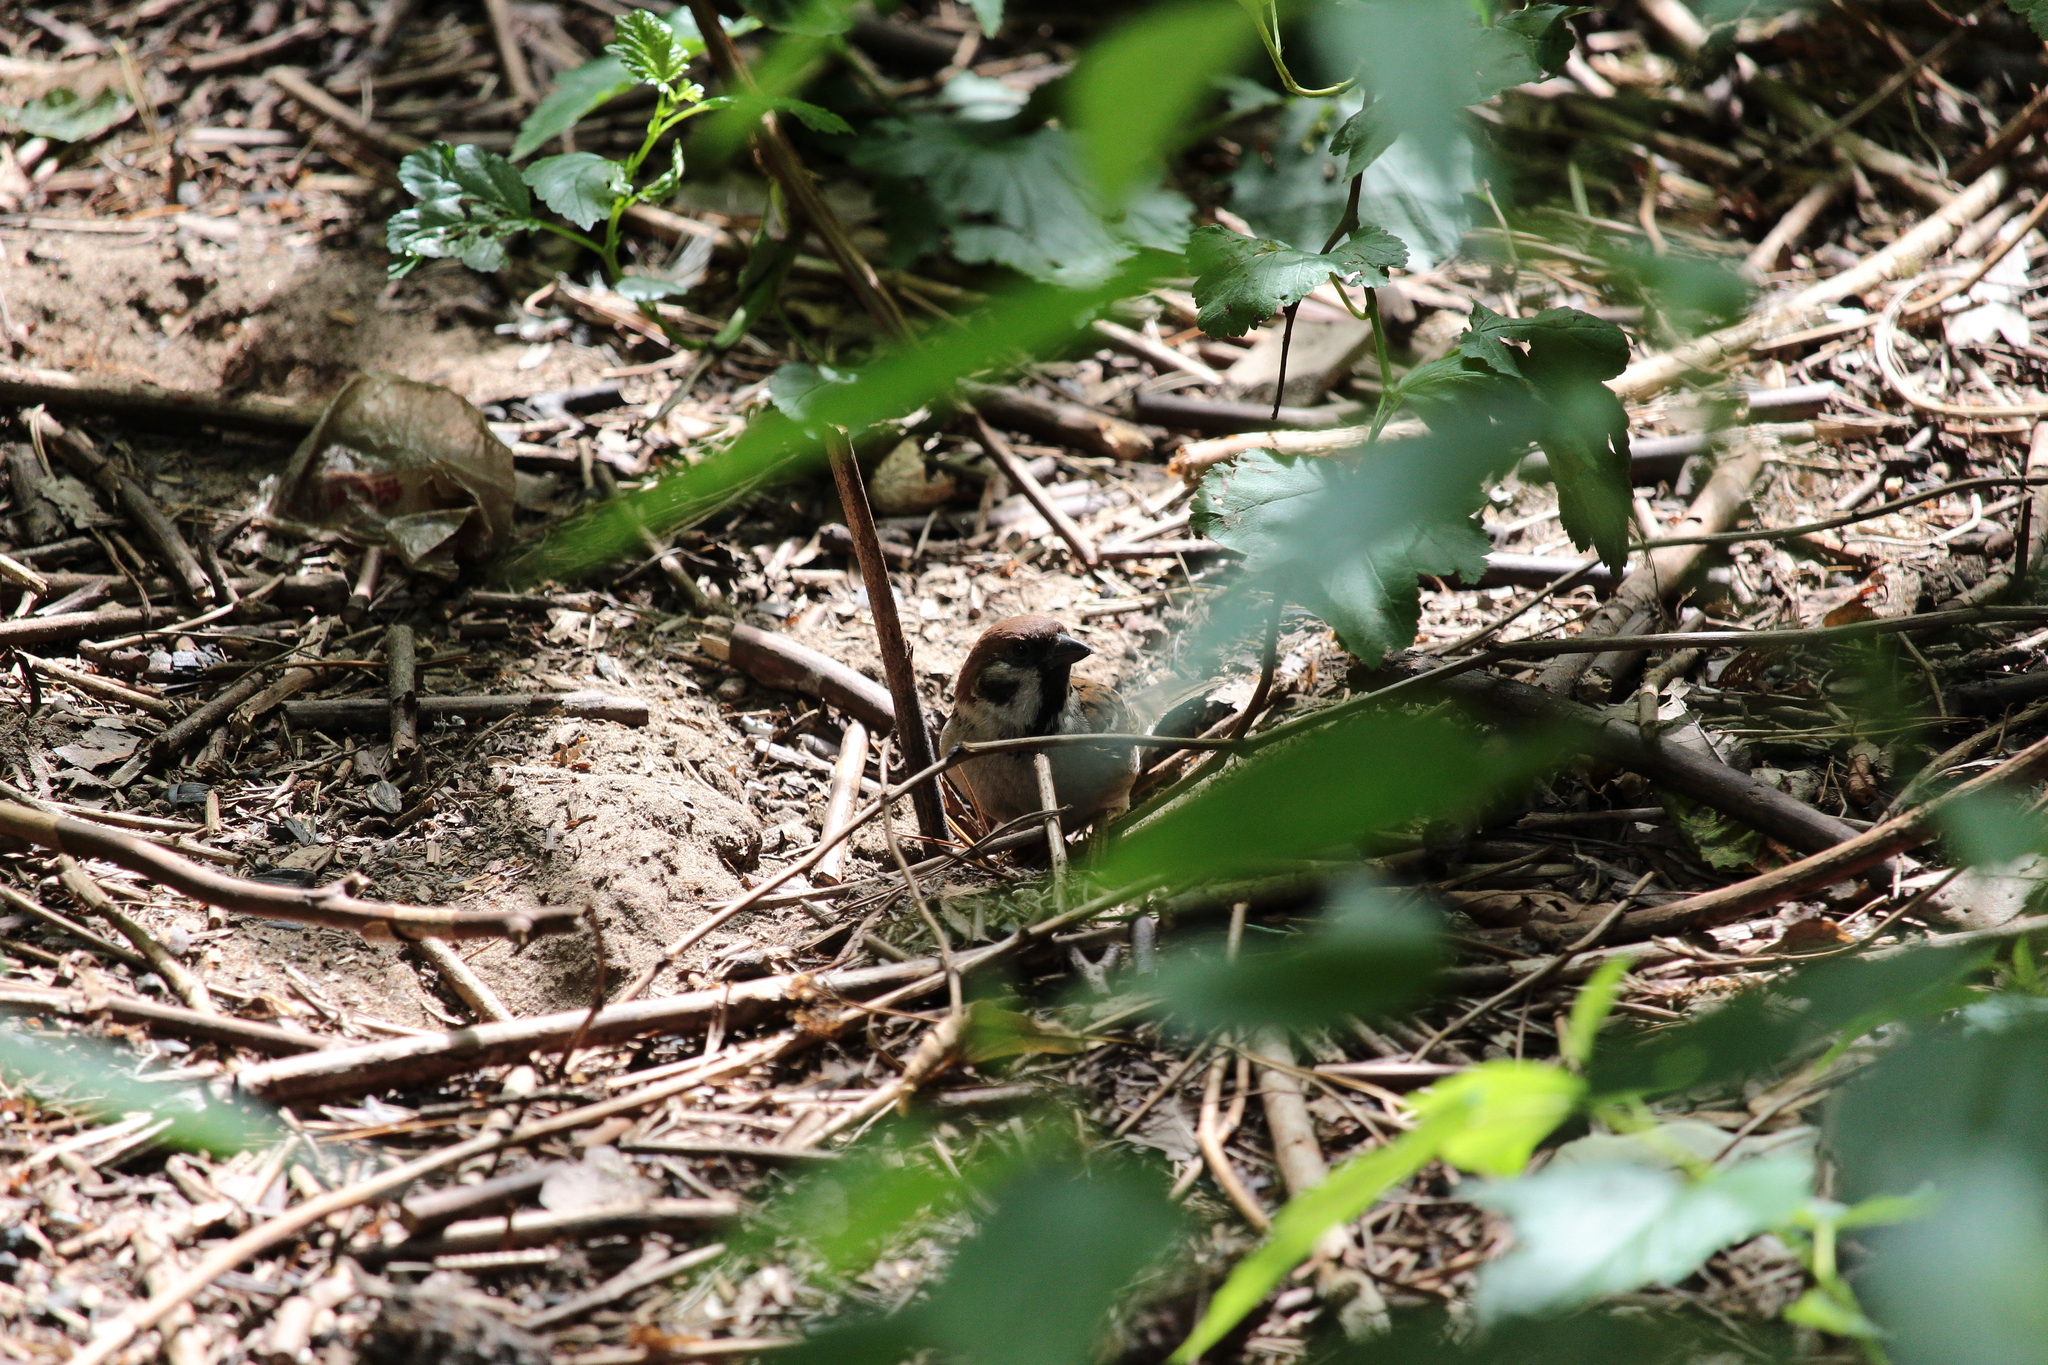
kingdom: Animalia
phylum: Chordata
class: Aves
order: Passeriformes
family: Passeridae
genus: Passer
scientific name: Passer montanus
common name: Eurasian tree sparrow
